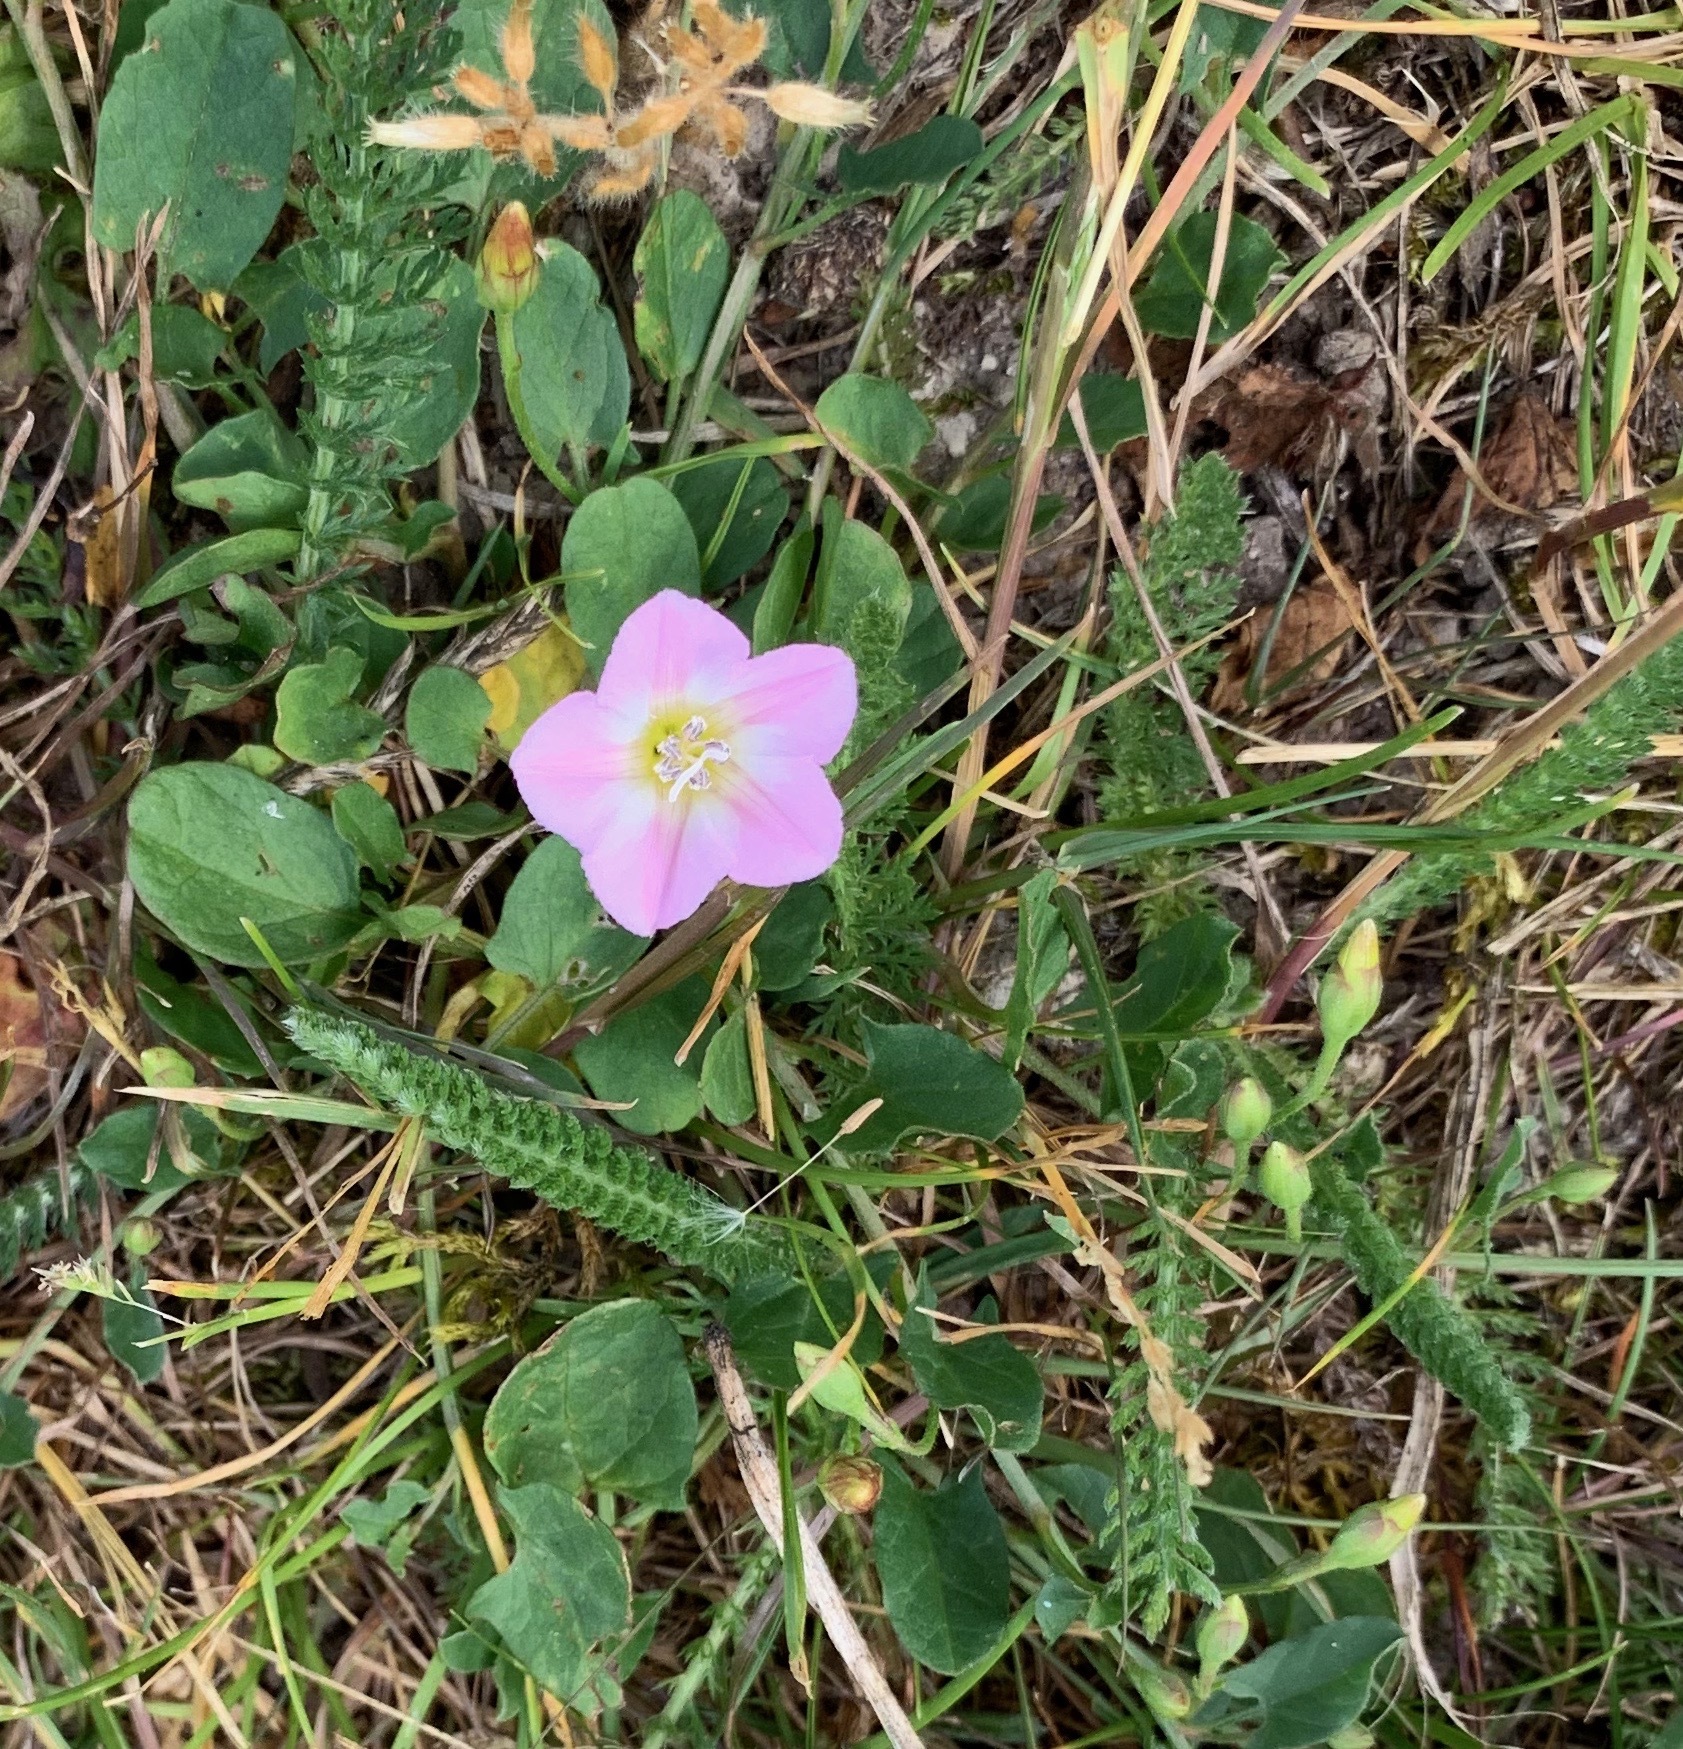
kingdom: Plantae
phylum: Tracheophyta
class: Magnoliopsida
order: Solanales
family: Convolvulaceae
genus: Convolvulus
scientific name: Convolvulus arvensis
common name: Field bindweed
